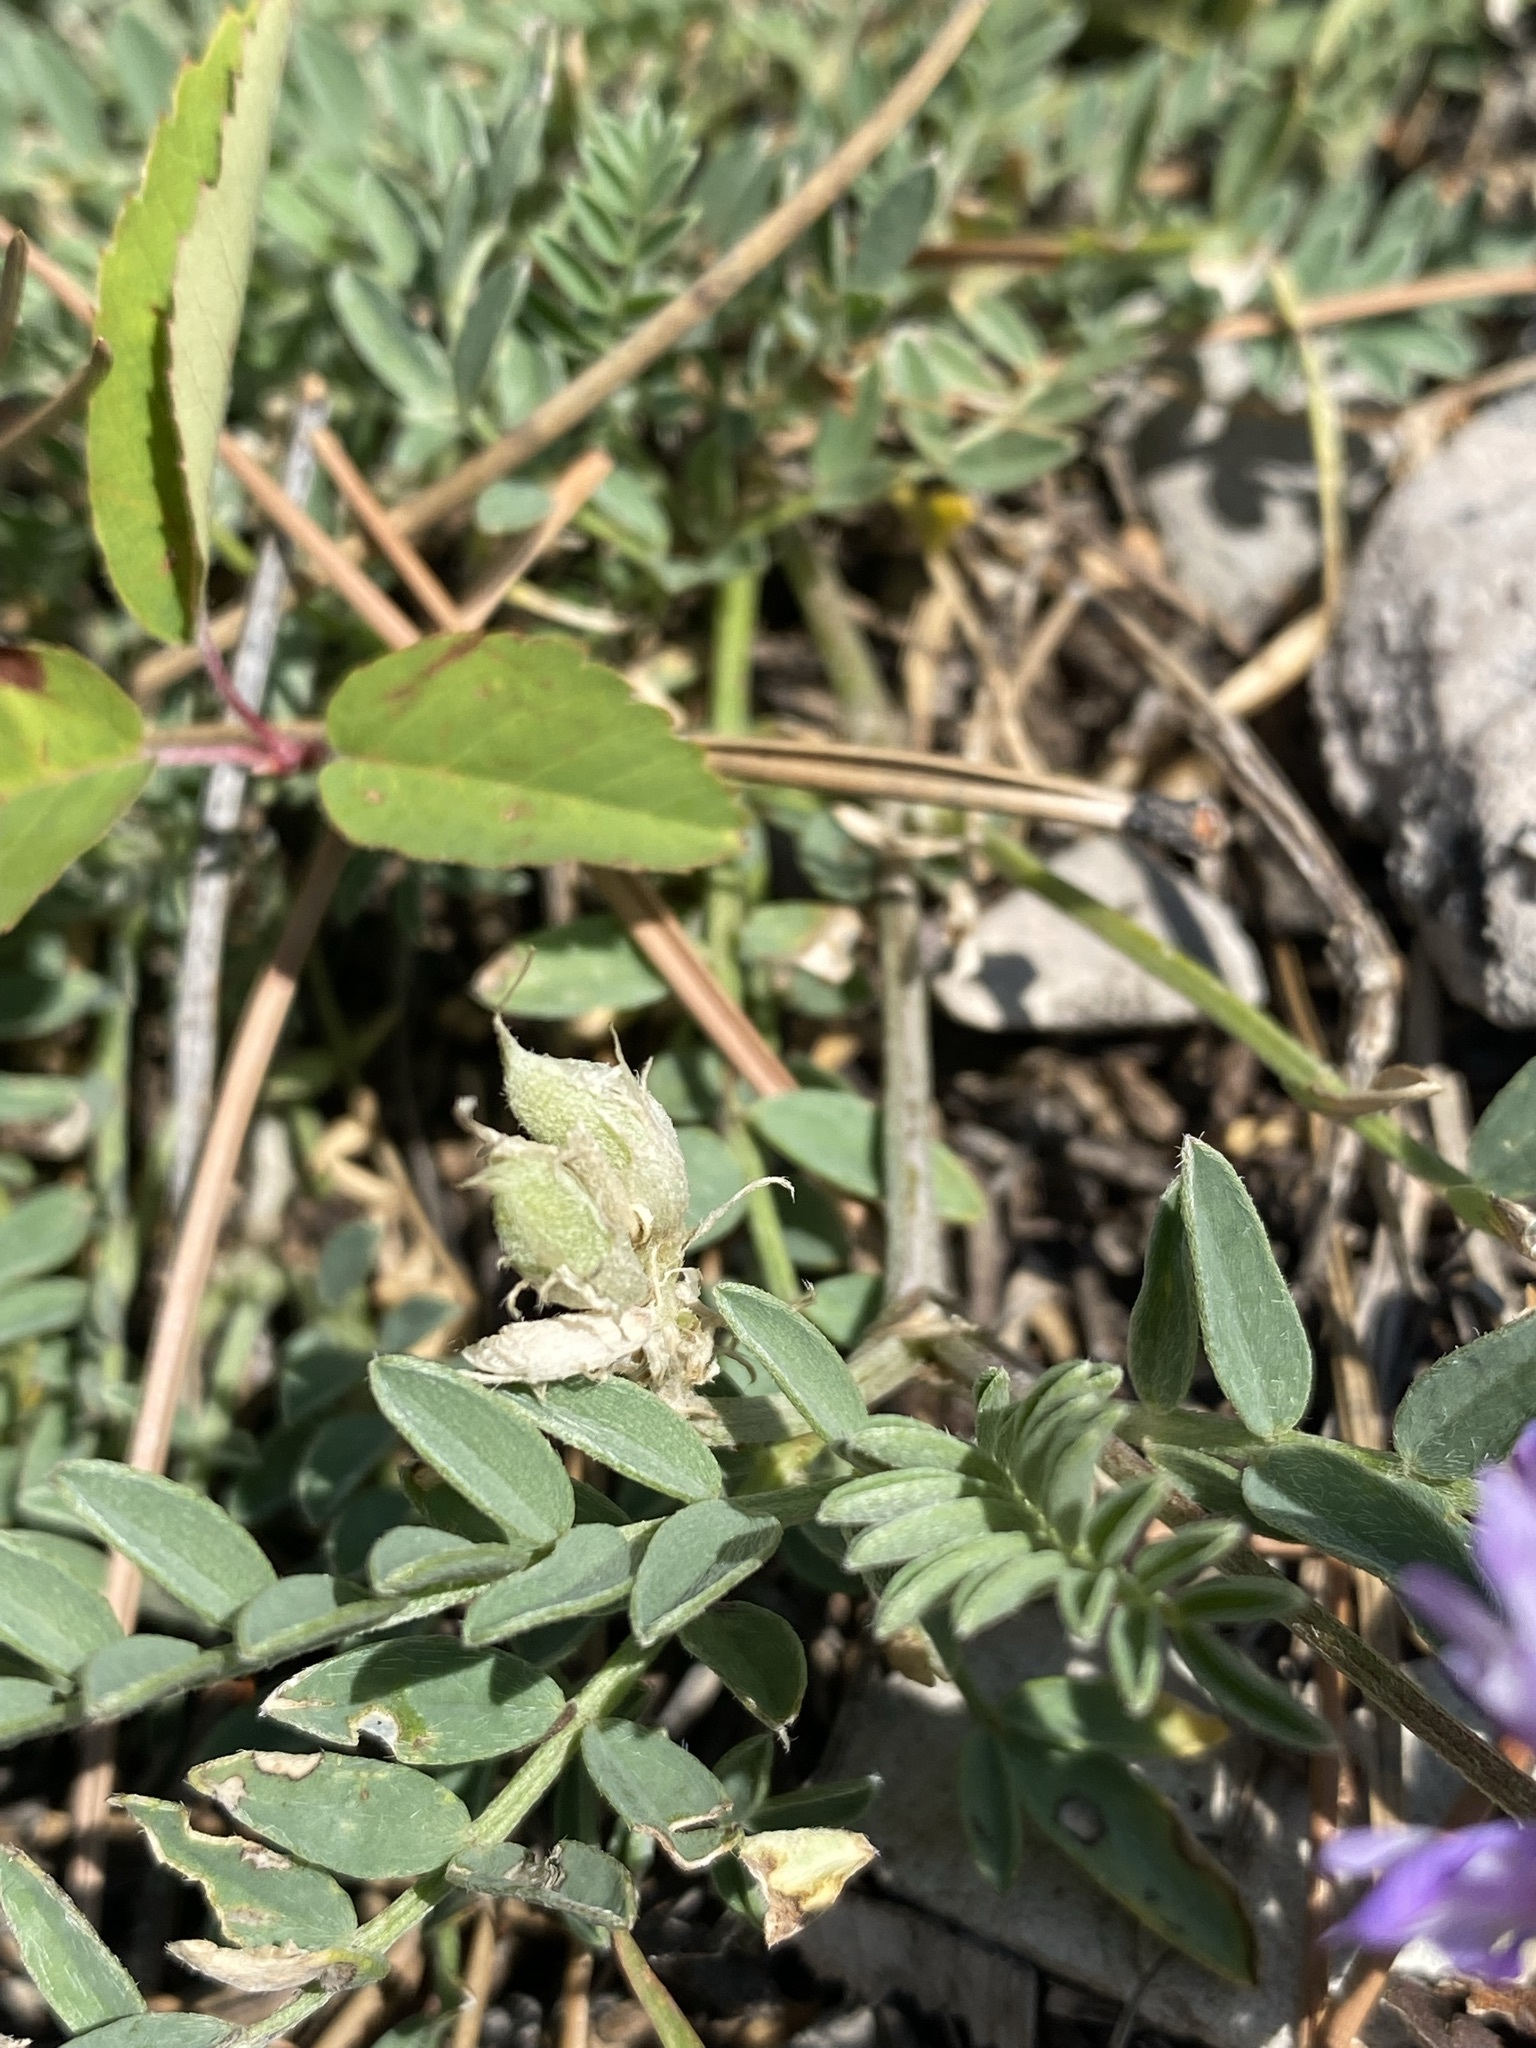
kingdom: Plantae
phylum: Tracheophyta
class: Magnoliopsida
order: Fabales
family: Fabaceae
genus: Astragalus
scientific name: Astragalus laxmannii
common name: Laxmann's milk-vetch
